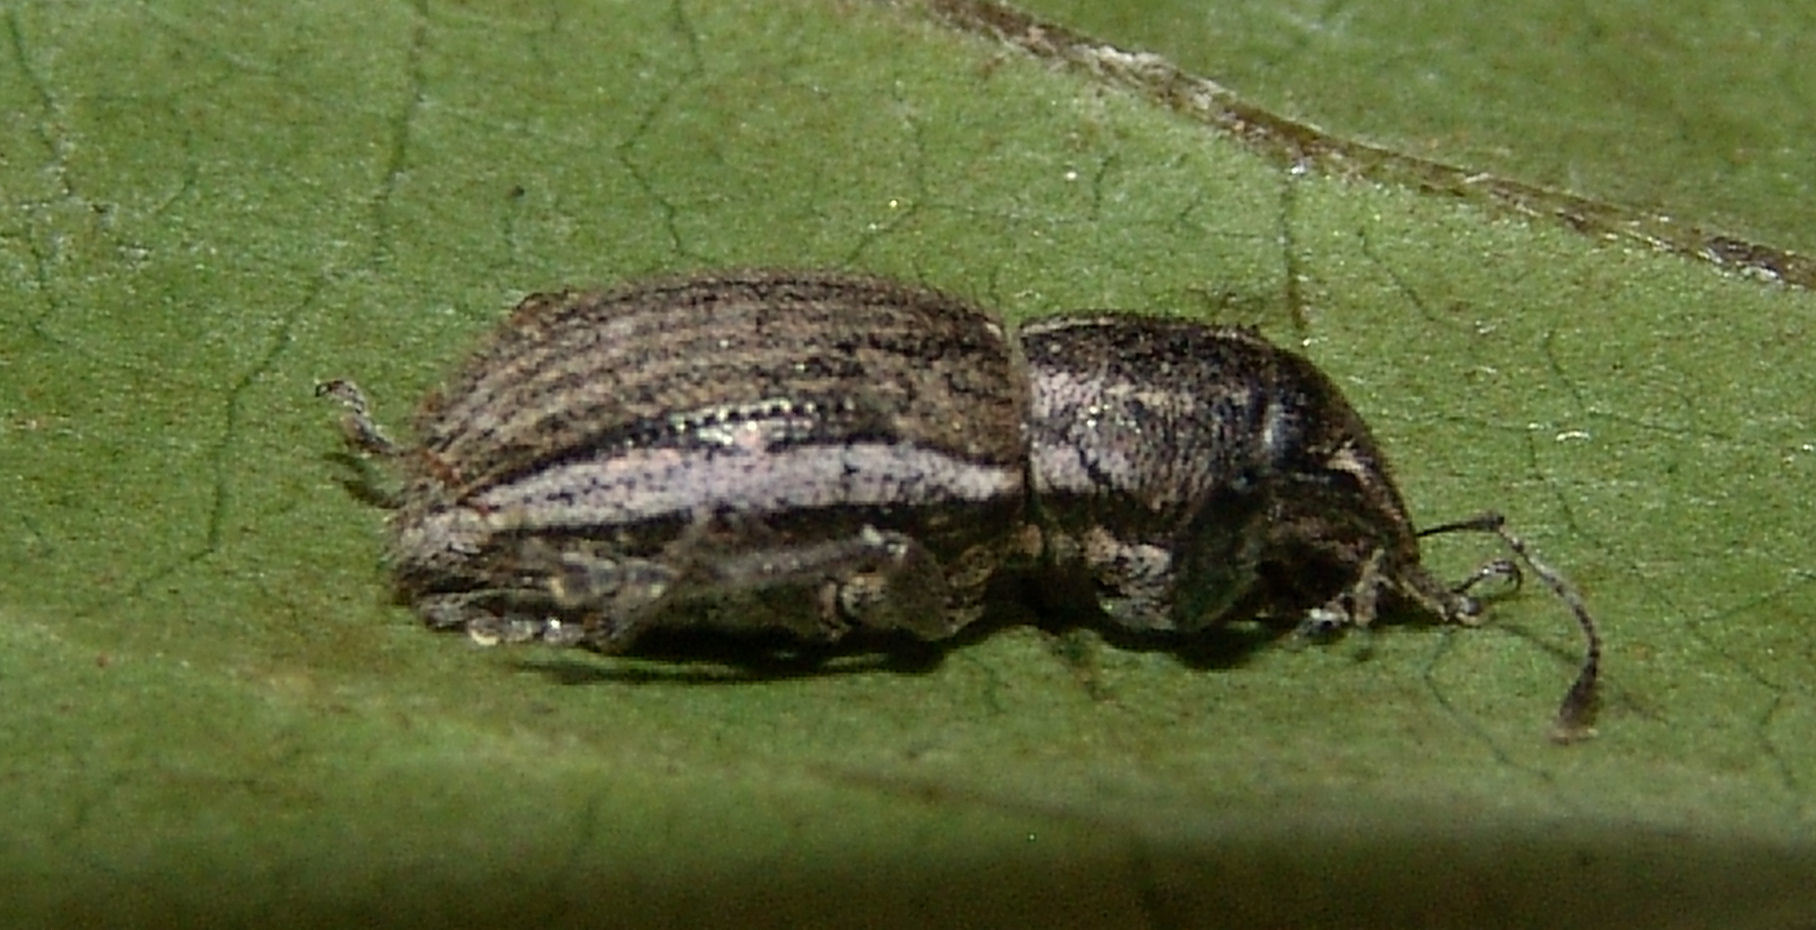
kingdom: Animalia
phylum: Arthropoda
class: Insecta
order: Coleoptera
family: Curculionidae
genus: Naupactus
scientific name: Naupactus leucoloma
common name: Whitefringed beetle
